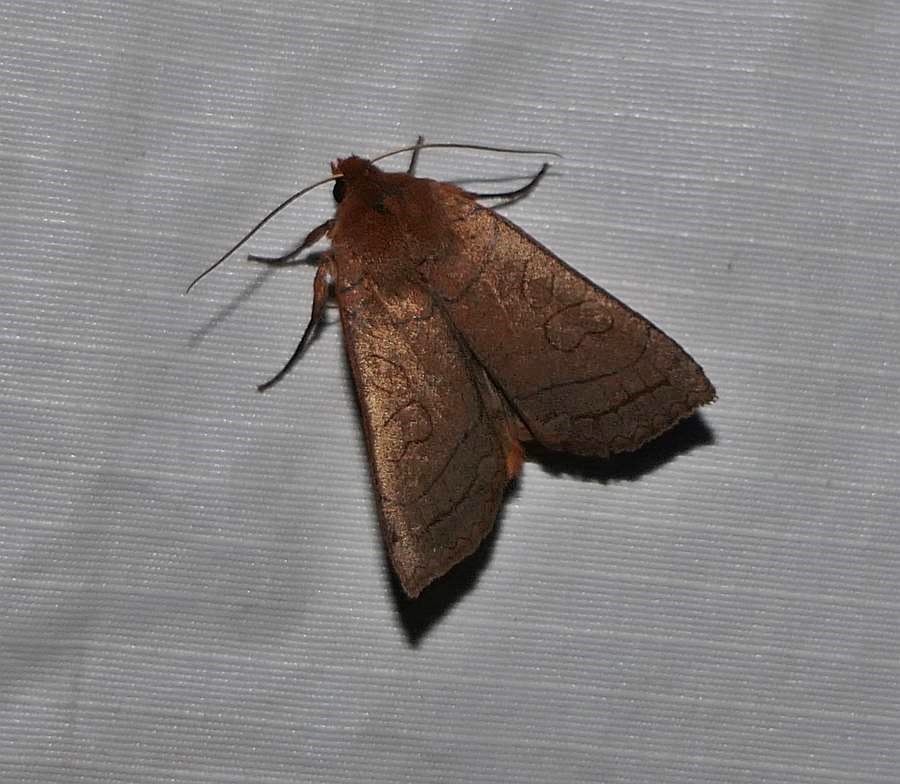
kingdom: Animalia
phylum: Arthropoda
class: Insecta
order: Lepidoptera
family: Noctuidae
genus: Metaxaglaea
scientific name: Metaxaglaea inulta
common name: Unsated sallow
